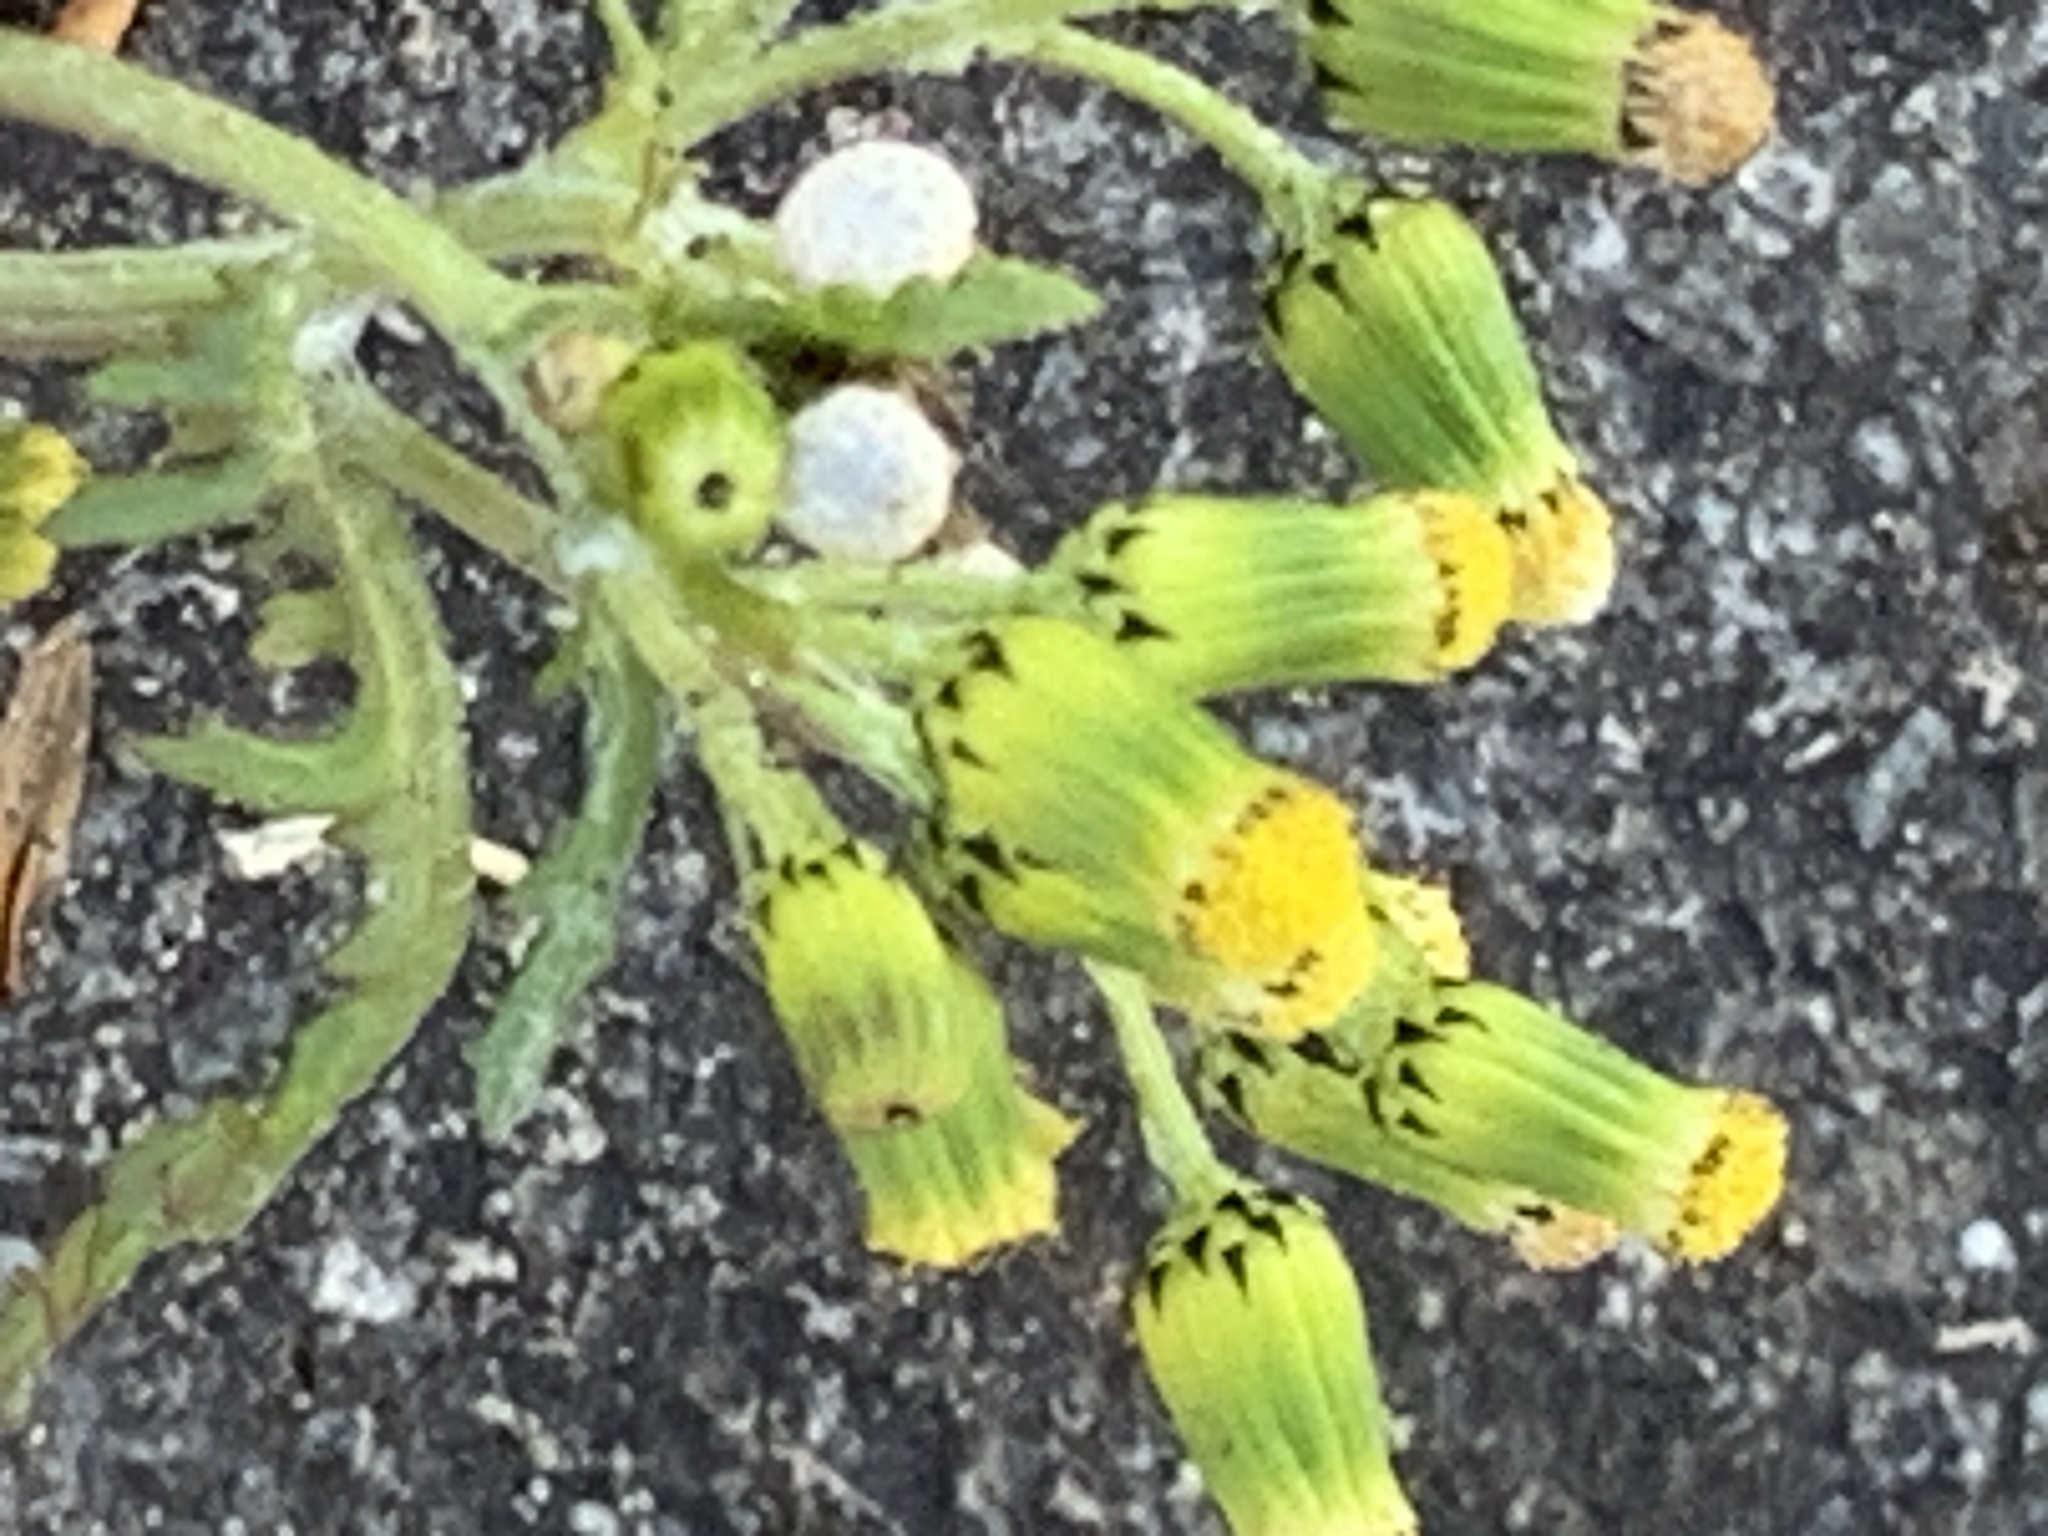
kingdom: Plantae
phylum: Tracheophyta
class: Magnoliopsida
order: Asterales
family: Asteraceae
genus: Senecio
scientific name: Senecio vulgaris
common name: Old-man-in-the-spring
